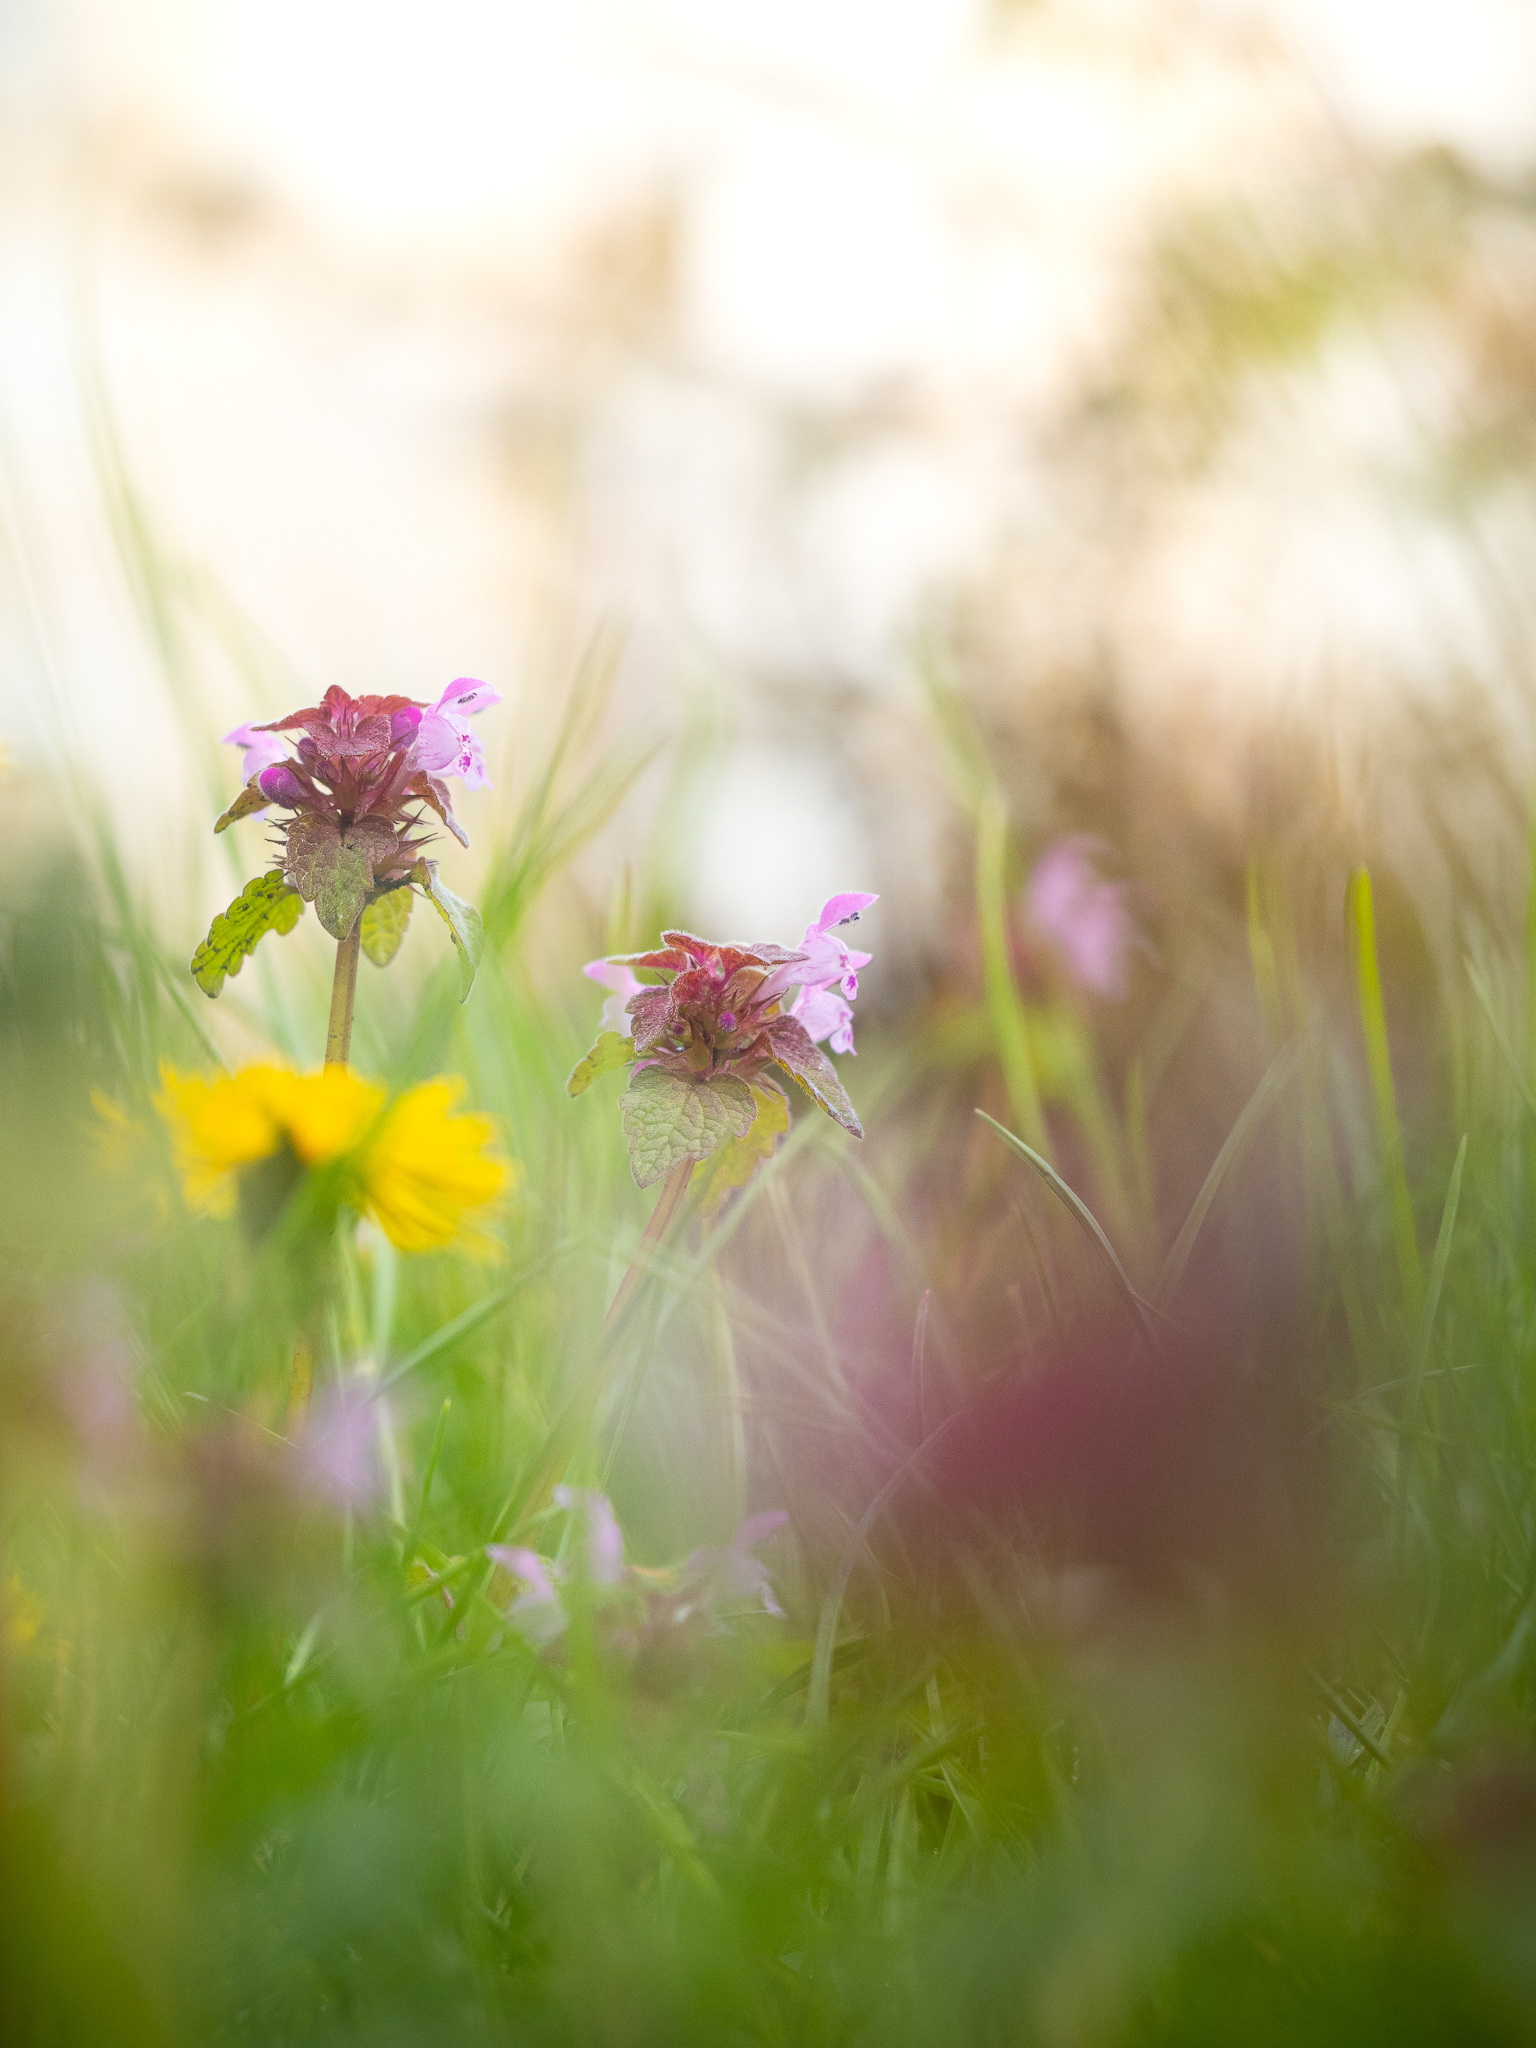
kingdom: Plantae
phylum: Tracheophyta
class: Magnoliopsida
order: Lamiales
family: Lamiaceae
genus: Lamium
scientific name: Lamium purpureum
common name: Red dead-nettle
